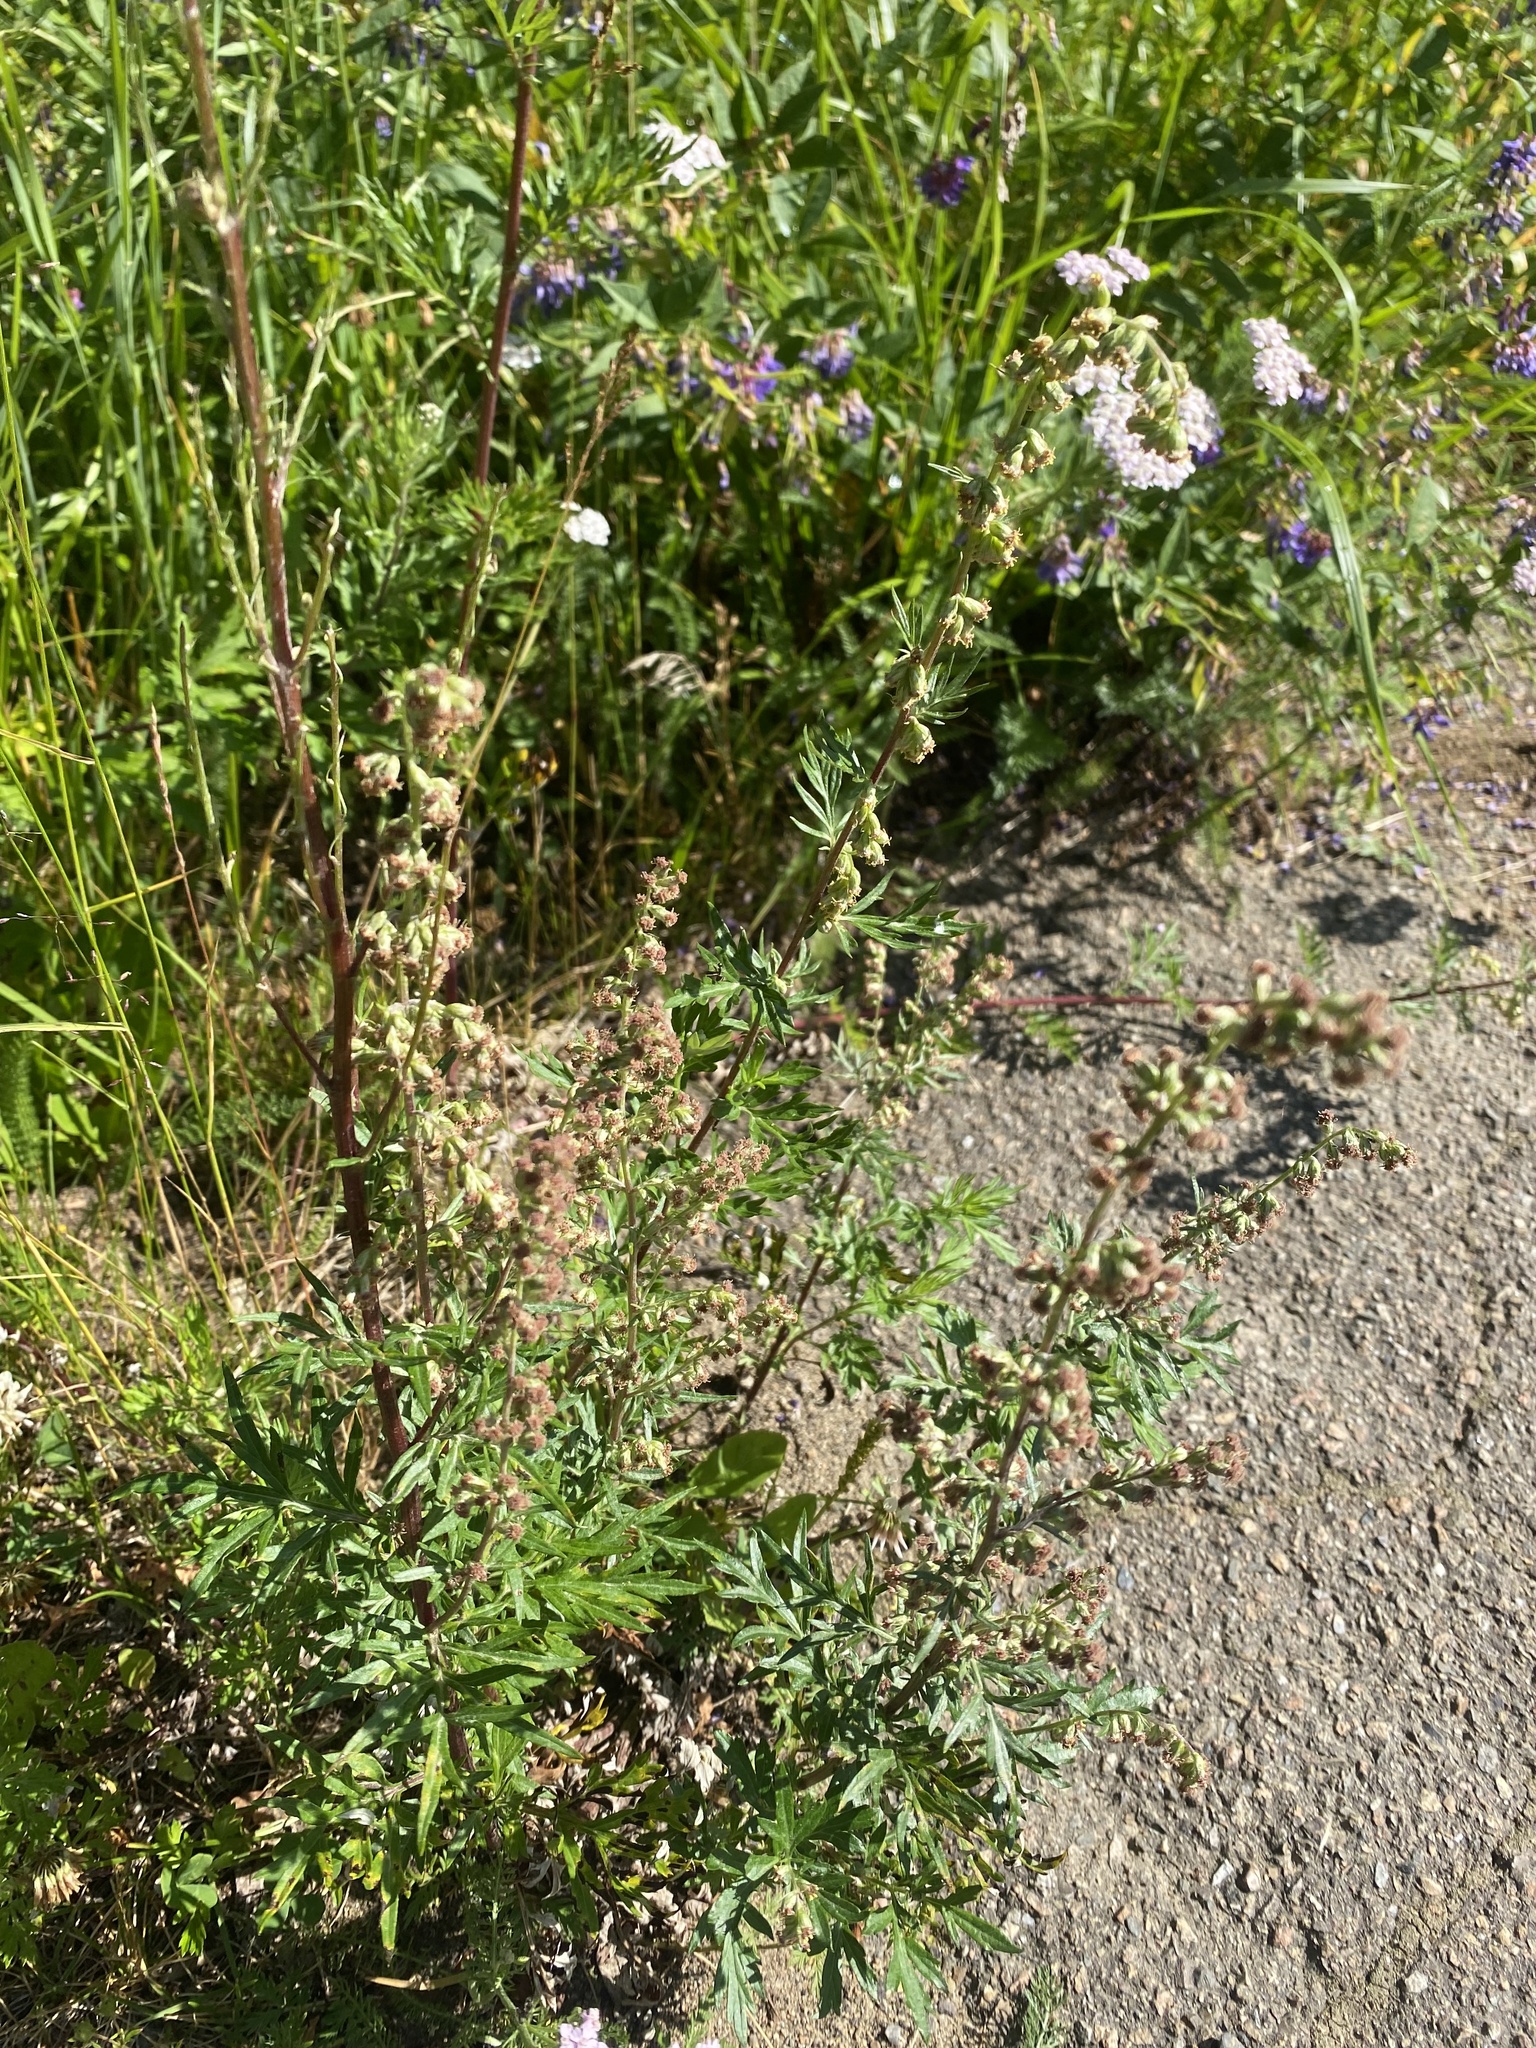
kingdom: Plantae
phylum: Tracheophyta
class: Magnoliopsida
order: Asterales
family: Asteraceae
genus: Artemisia
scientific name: Artemisia gmelinii
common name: Gmelin's wormwood
